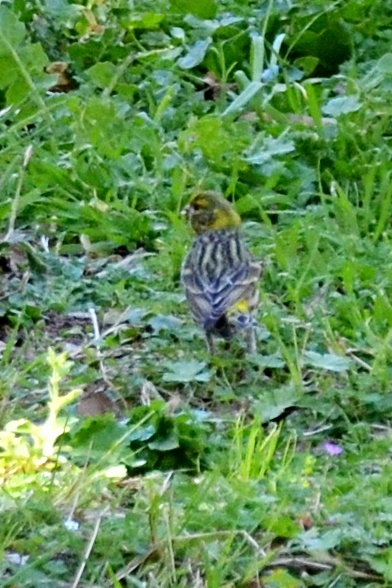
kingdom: Animalia
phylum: Chordata
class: Aves
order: Passeriformes
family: Fringillidae
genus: Serinus
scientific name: Serinus serinus
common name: European serin
